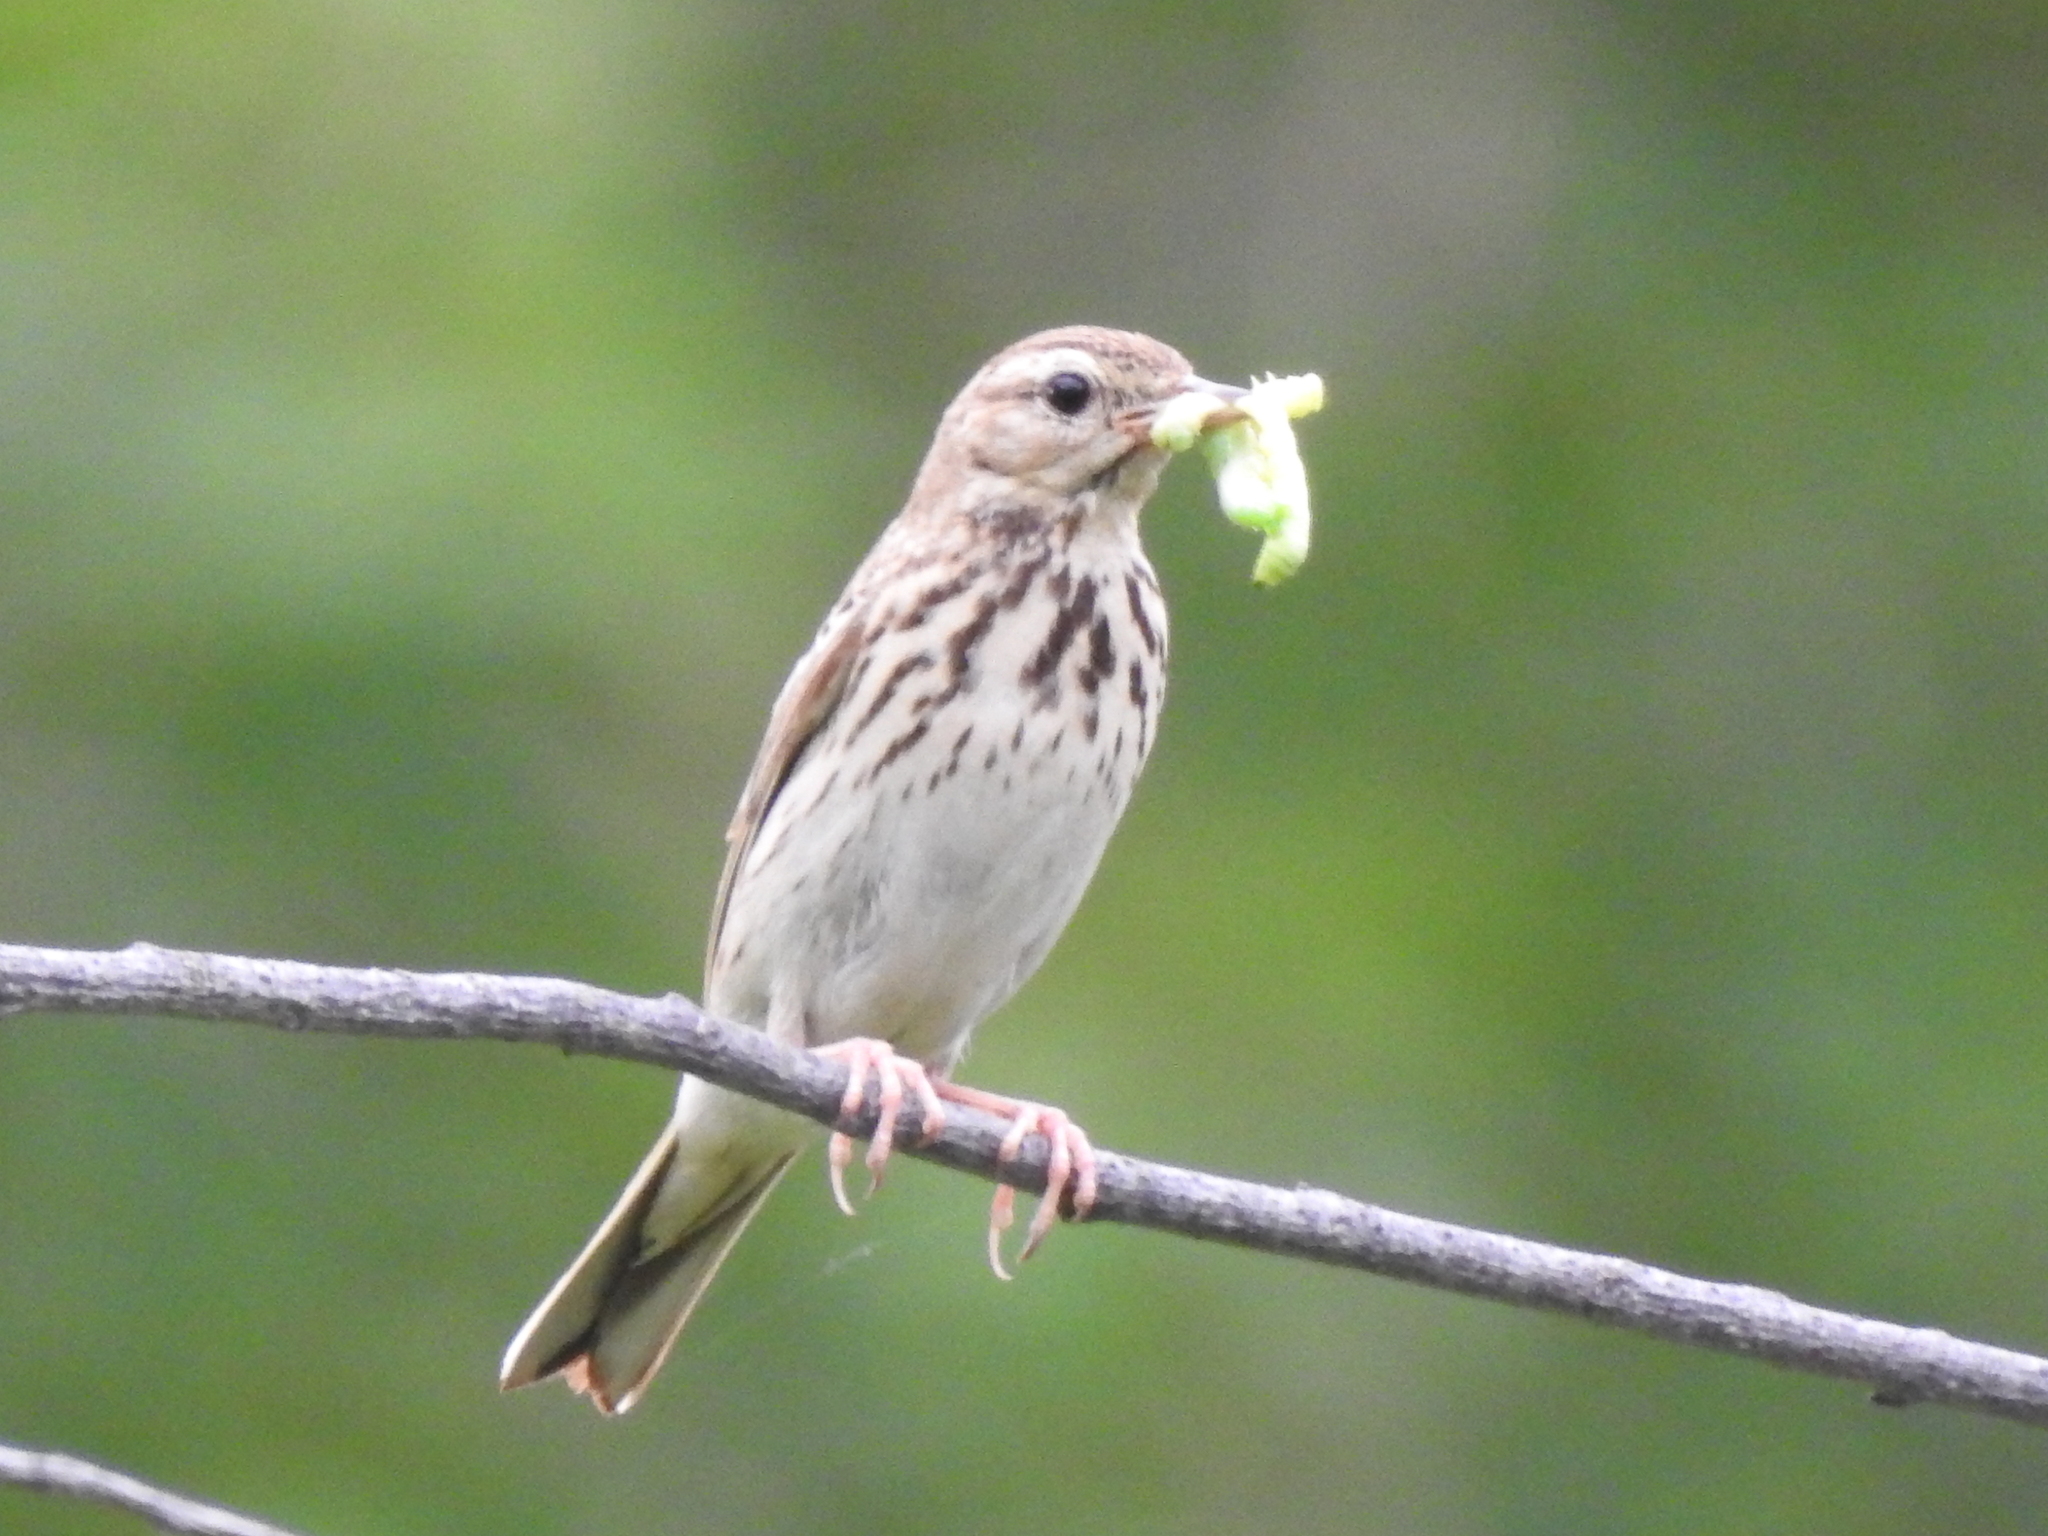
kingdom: Animalia
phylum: Chordata
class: Aves
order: Passeriformes
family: Motacillidae
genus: Anthus
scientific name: Anthus trivialis
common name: Tree pipit
